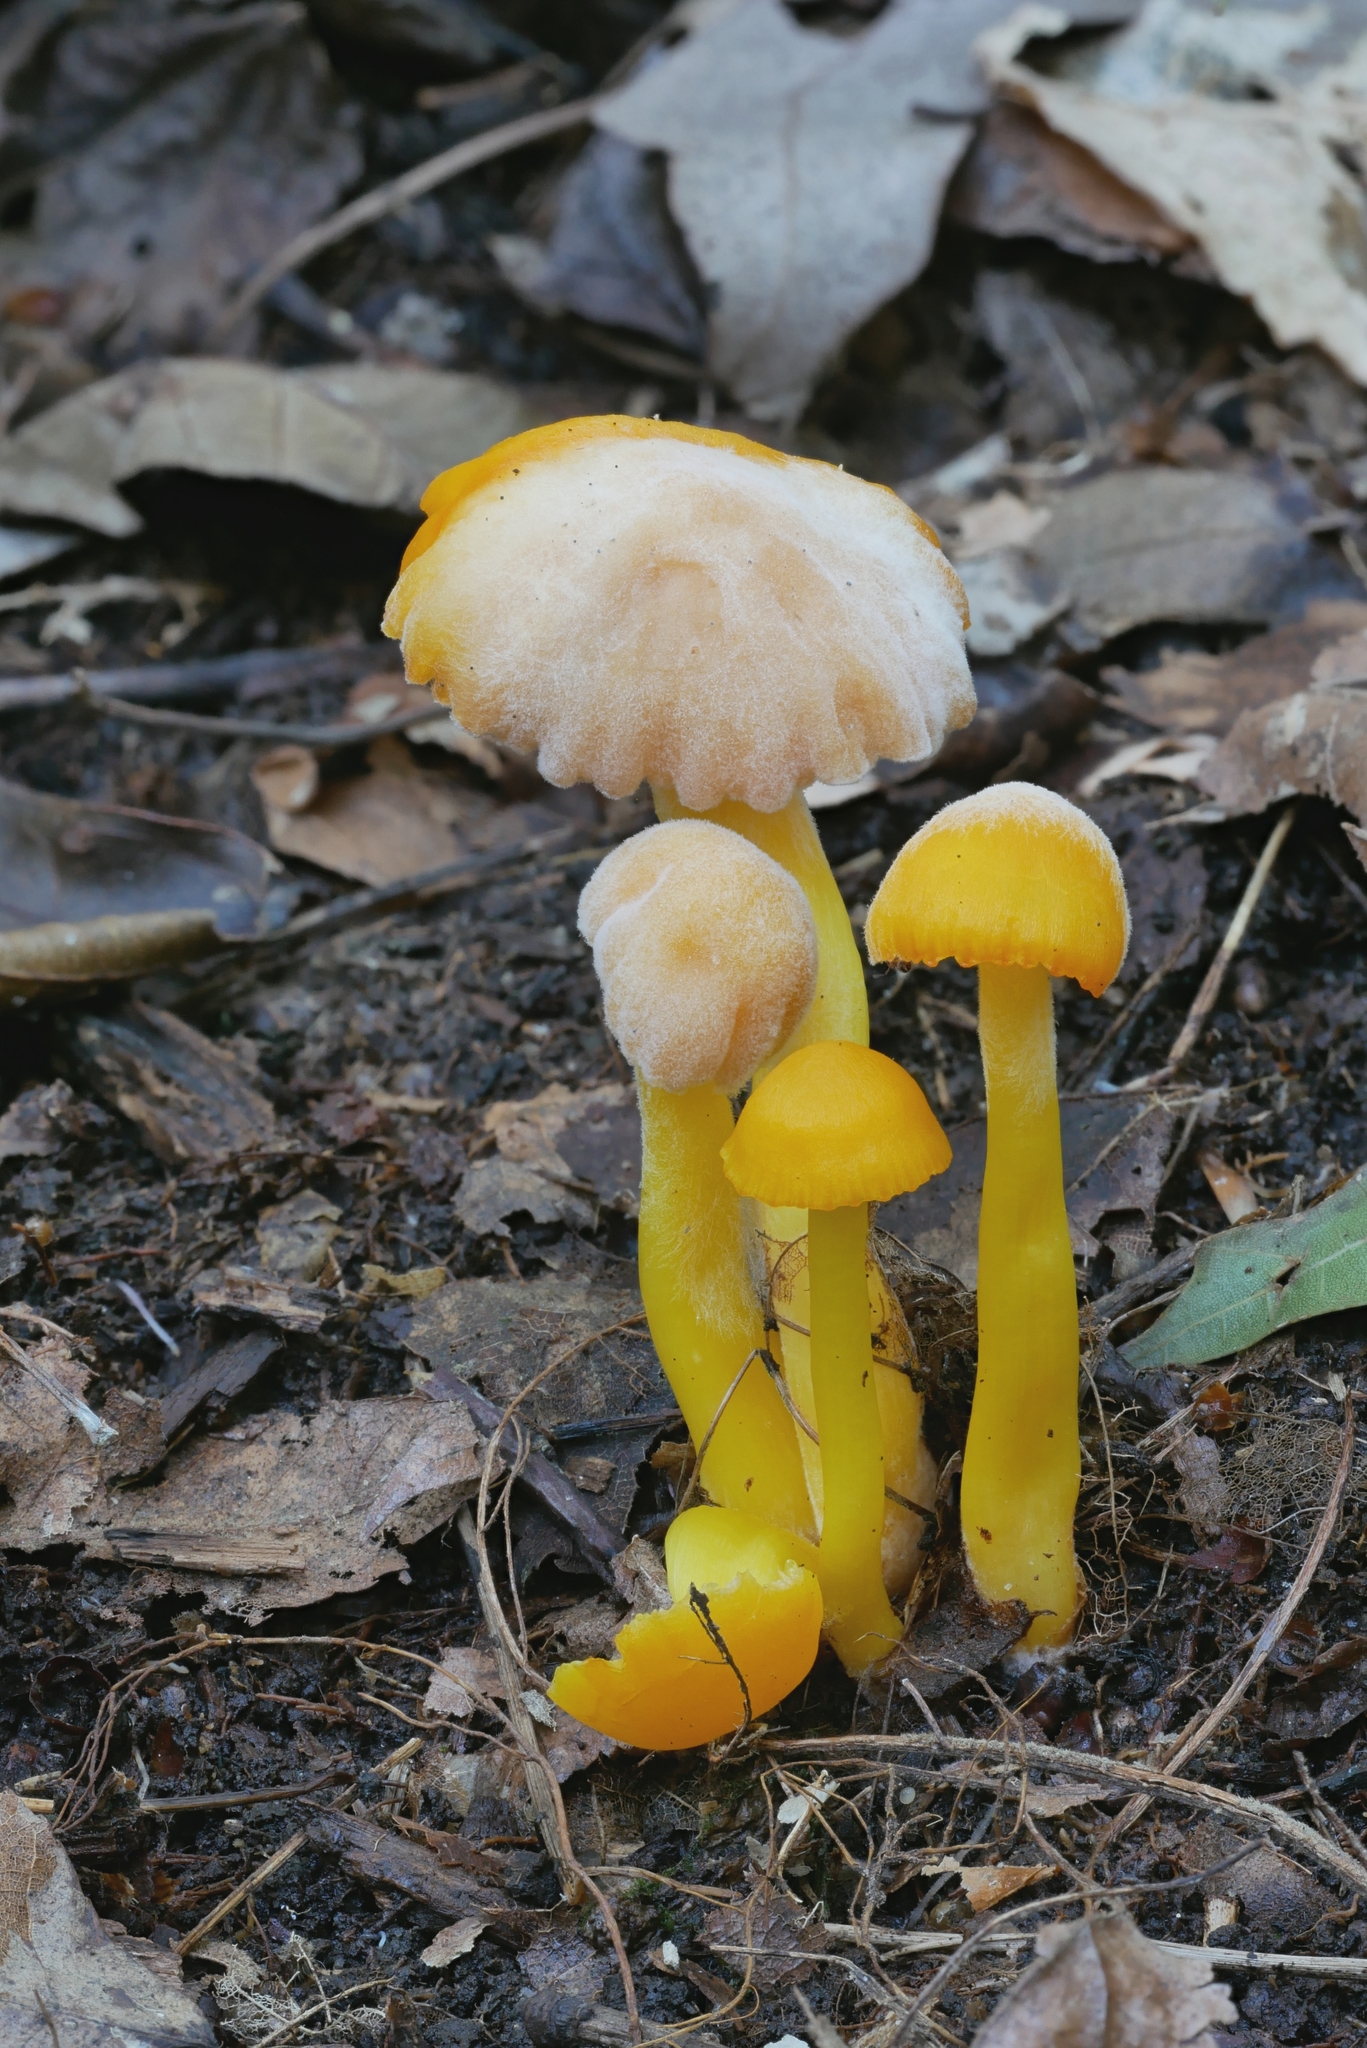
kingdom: Fungi
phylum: Ascomycota
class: Sordariomycetes
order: Hypocreales
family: Nectriaceae
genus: Fusarium
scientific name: Fusarium sporotrichioides
